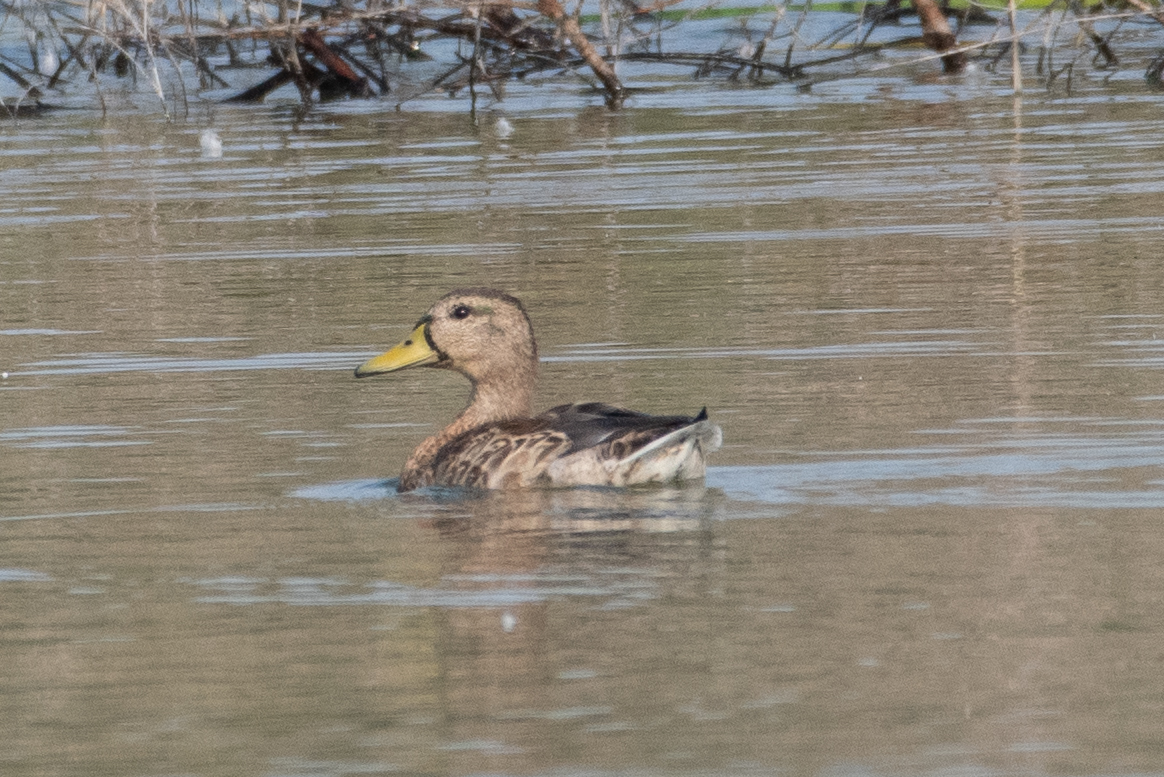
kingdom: Animalia
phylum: Chordata
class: Aves
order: Anseriformes
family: Anatidae
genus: Anas
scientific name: Anas platyrhynchos
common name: Mallard
